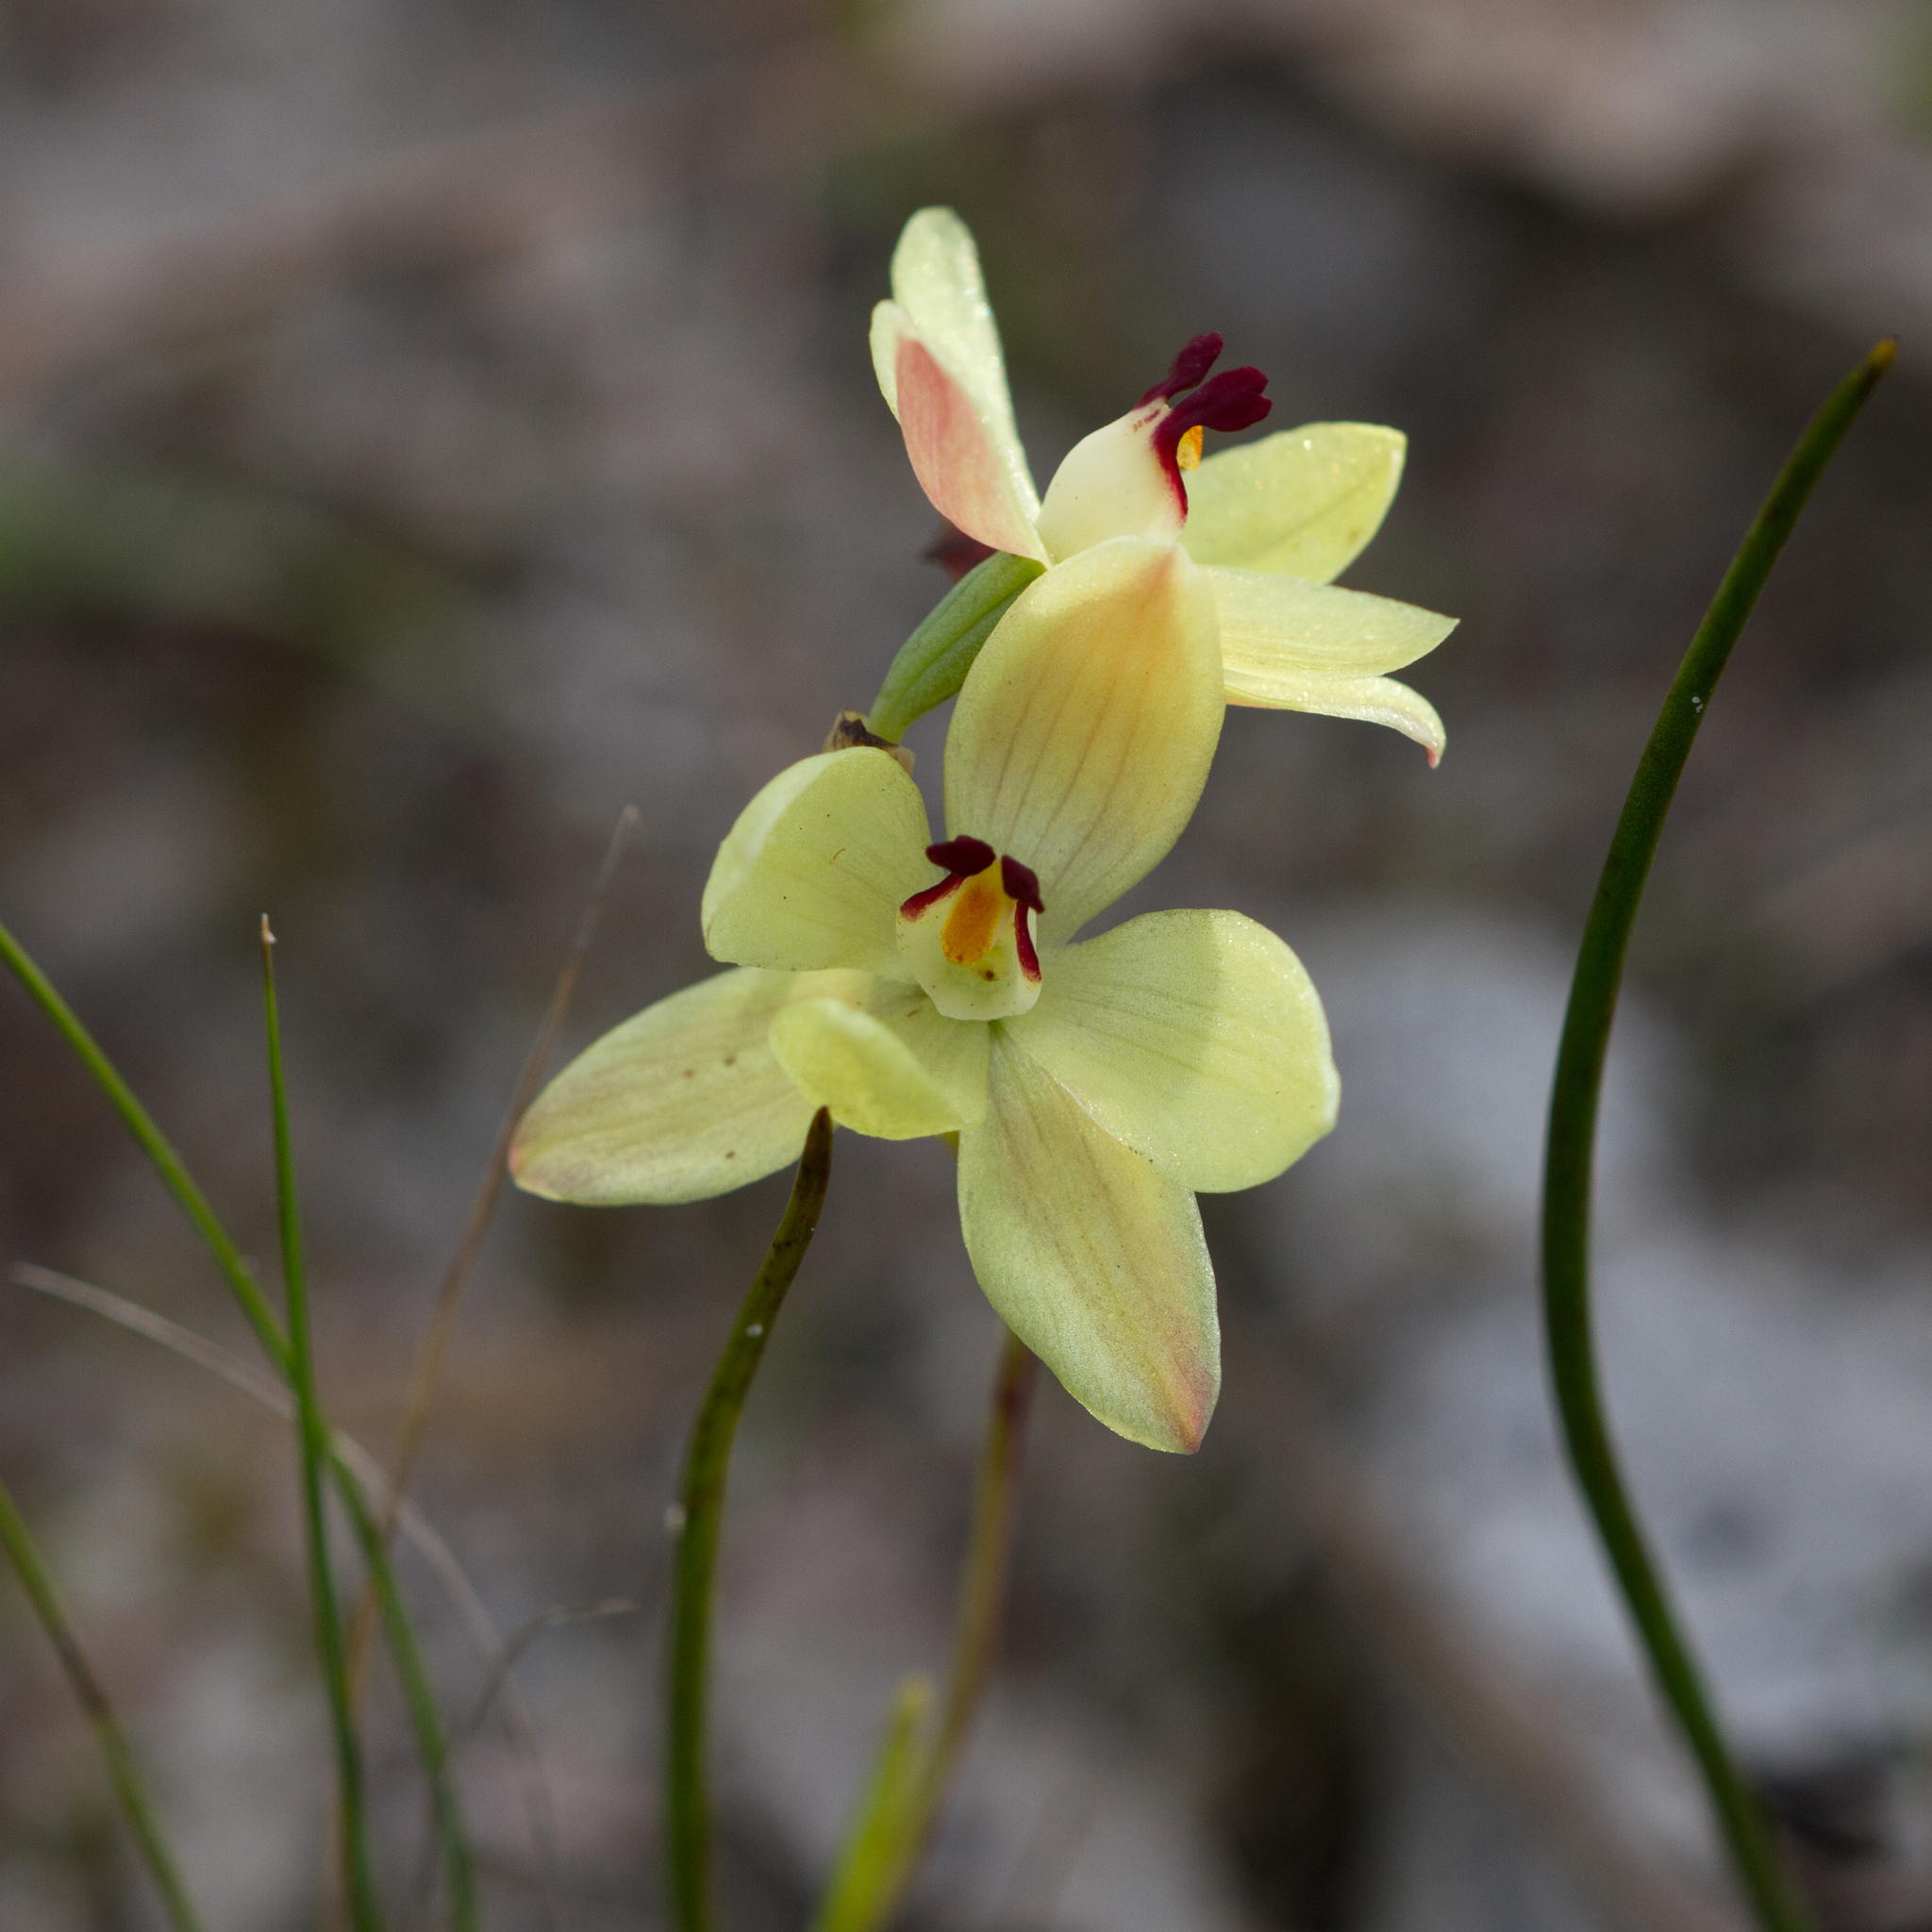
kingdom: Plantae
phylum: Tracheophyta
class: Liliopsida
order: Asparagales
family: Orchidaceae
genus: Thelymitra
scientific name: Thelymitra antennifera
